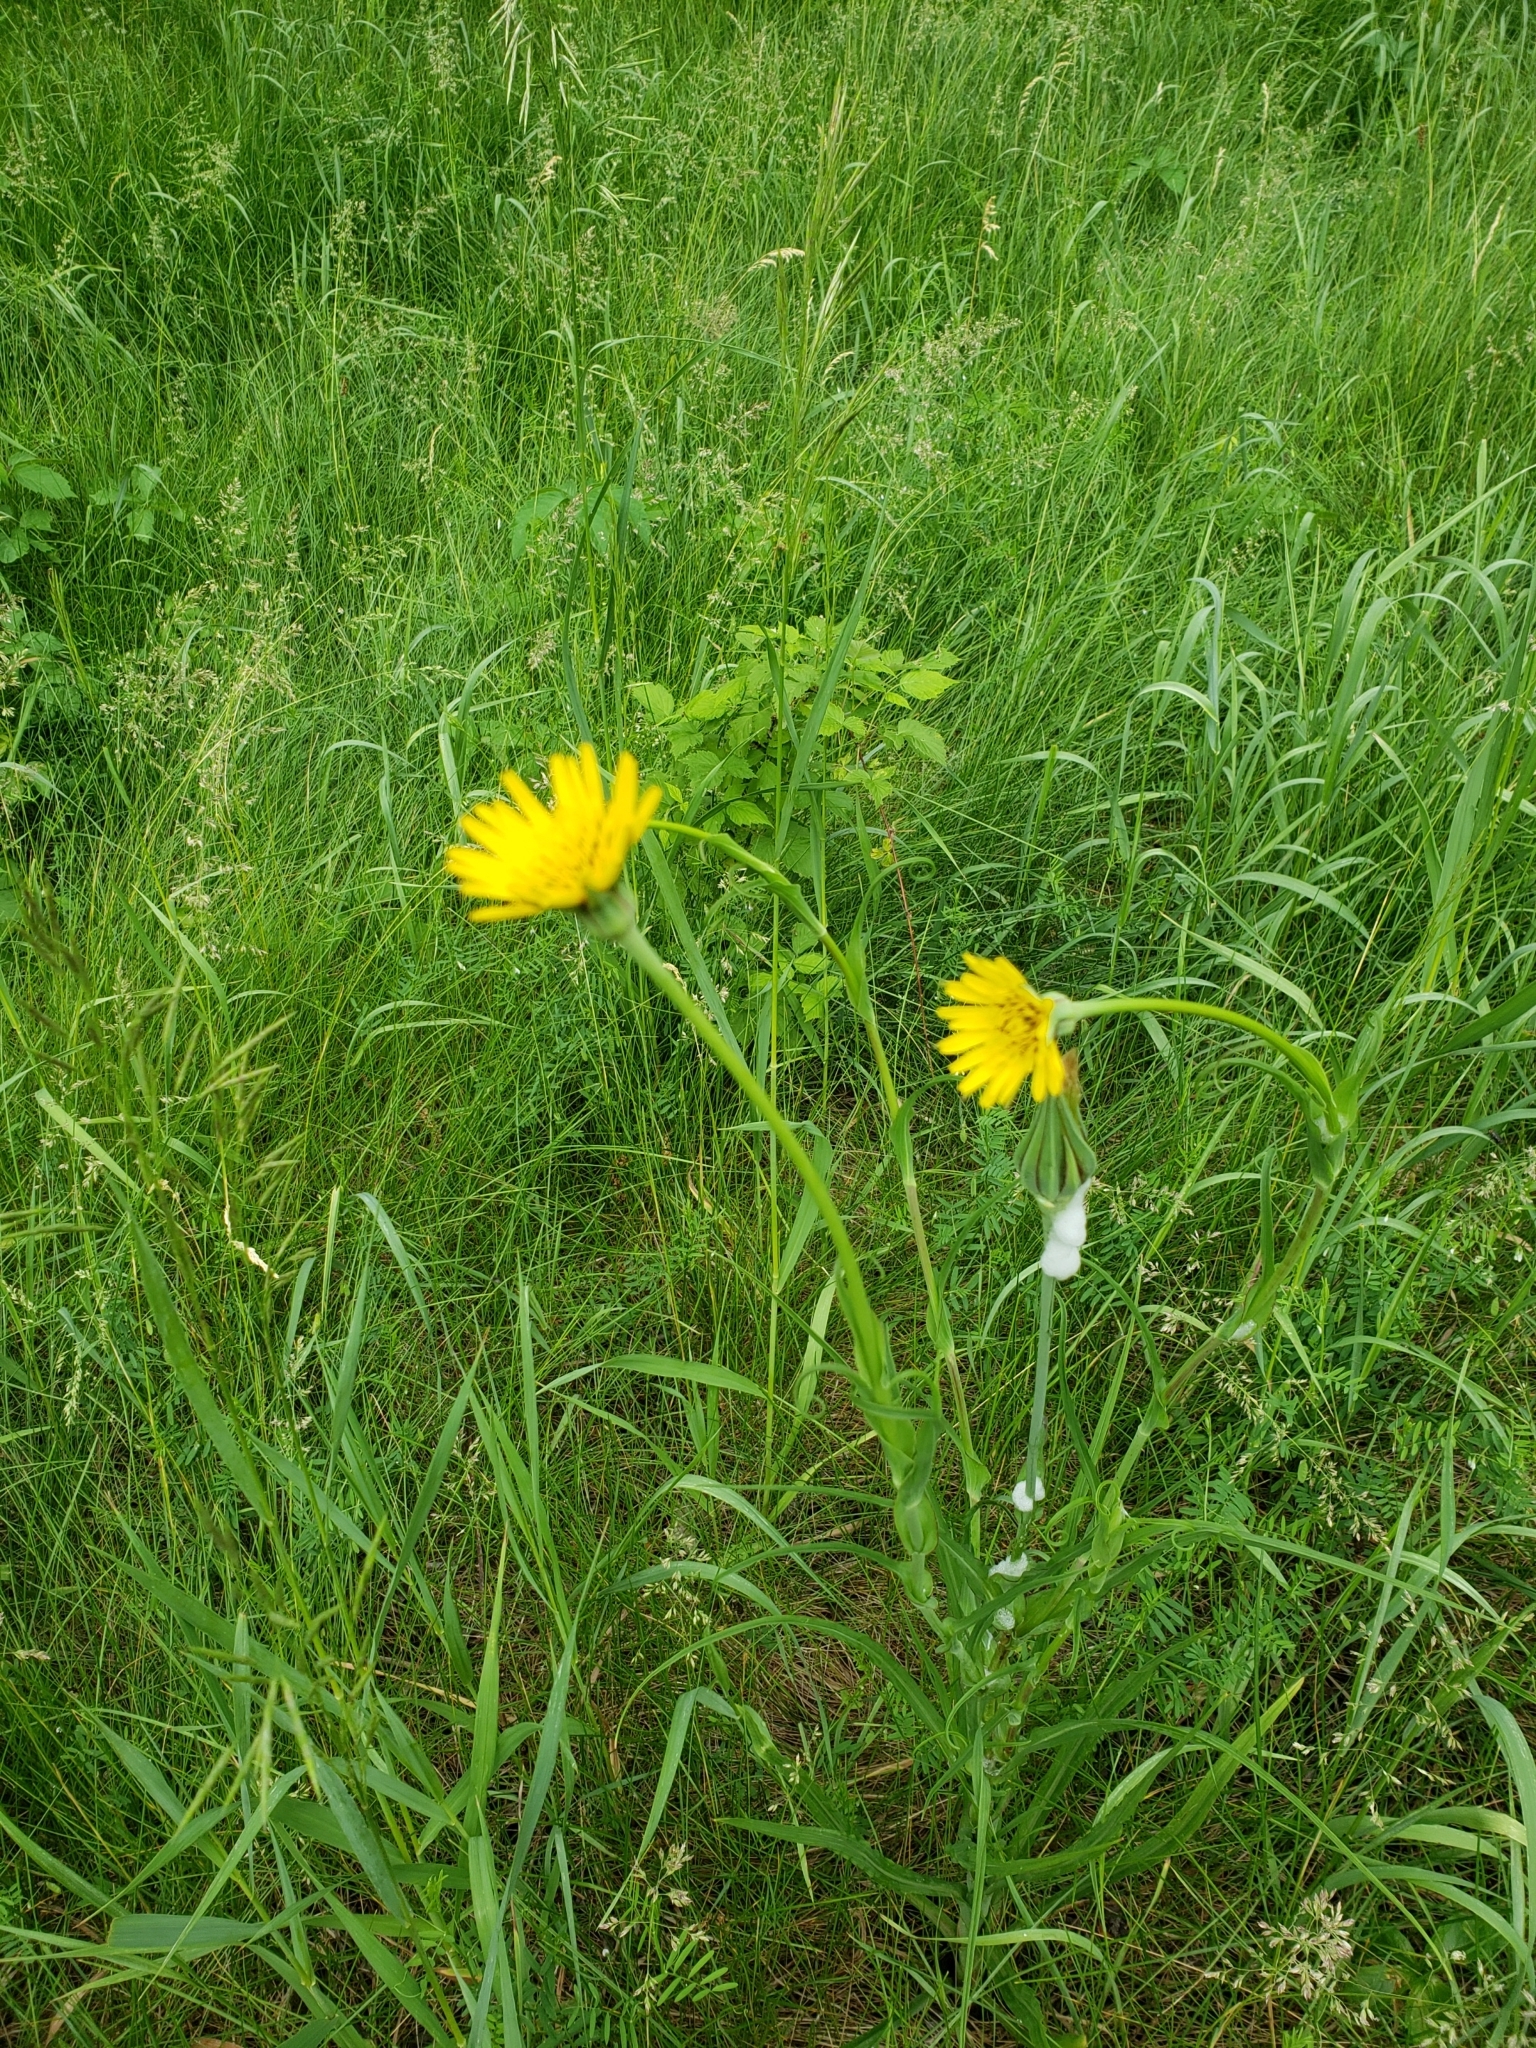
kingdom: Plantae
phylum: Tracheophyta
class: Magnoliopsida
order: Asterales
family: Asteraceae
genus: Tragopogon
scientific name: Tragopogon pratensis
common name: Goat's-beard
